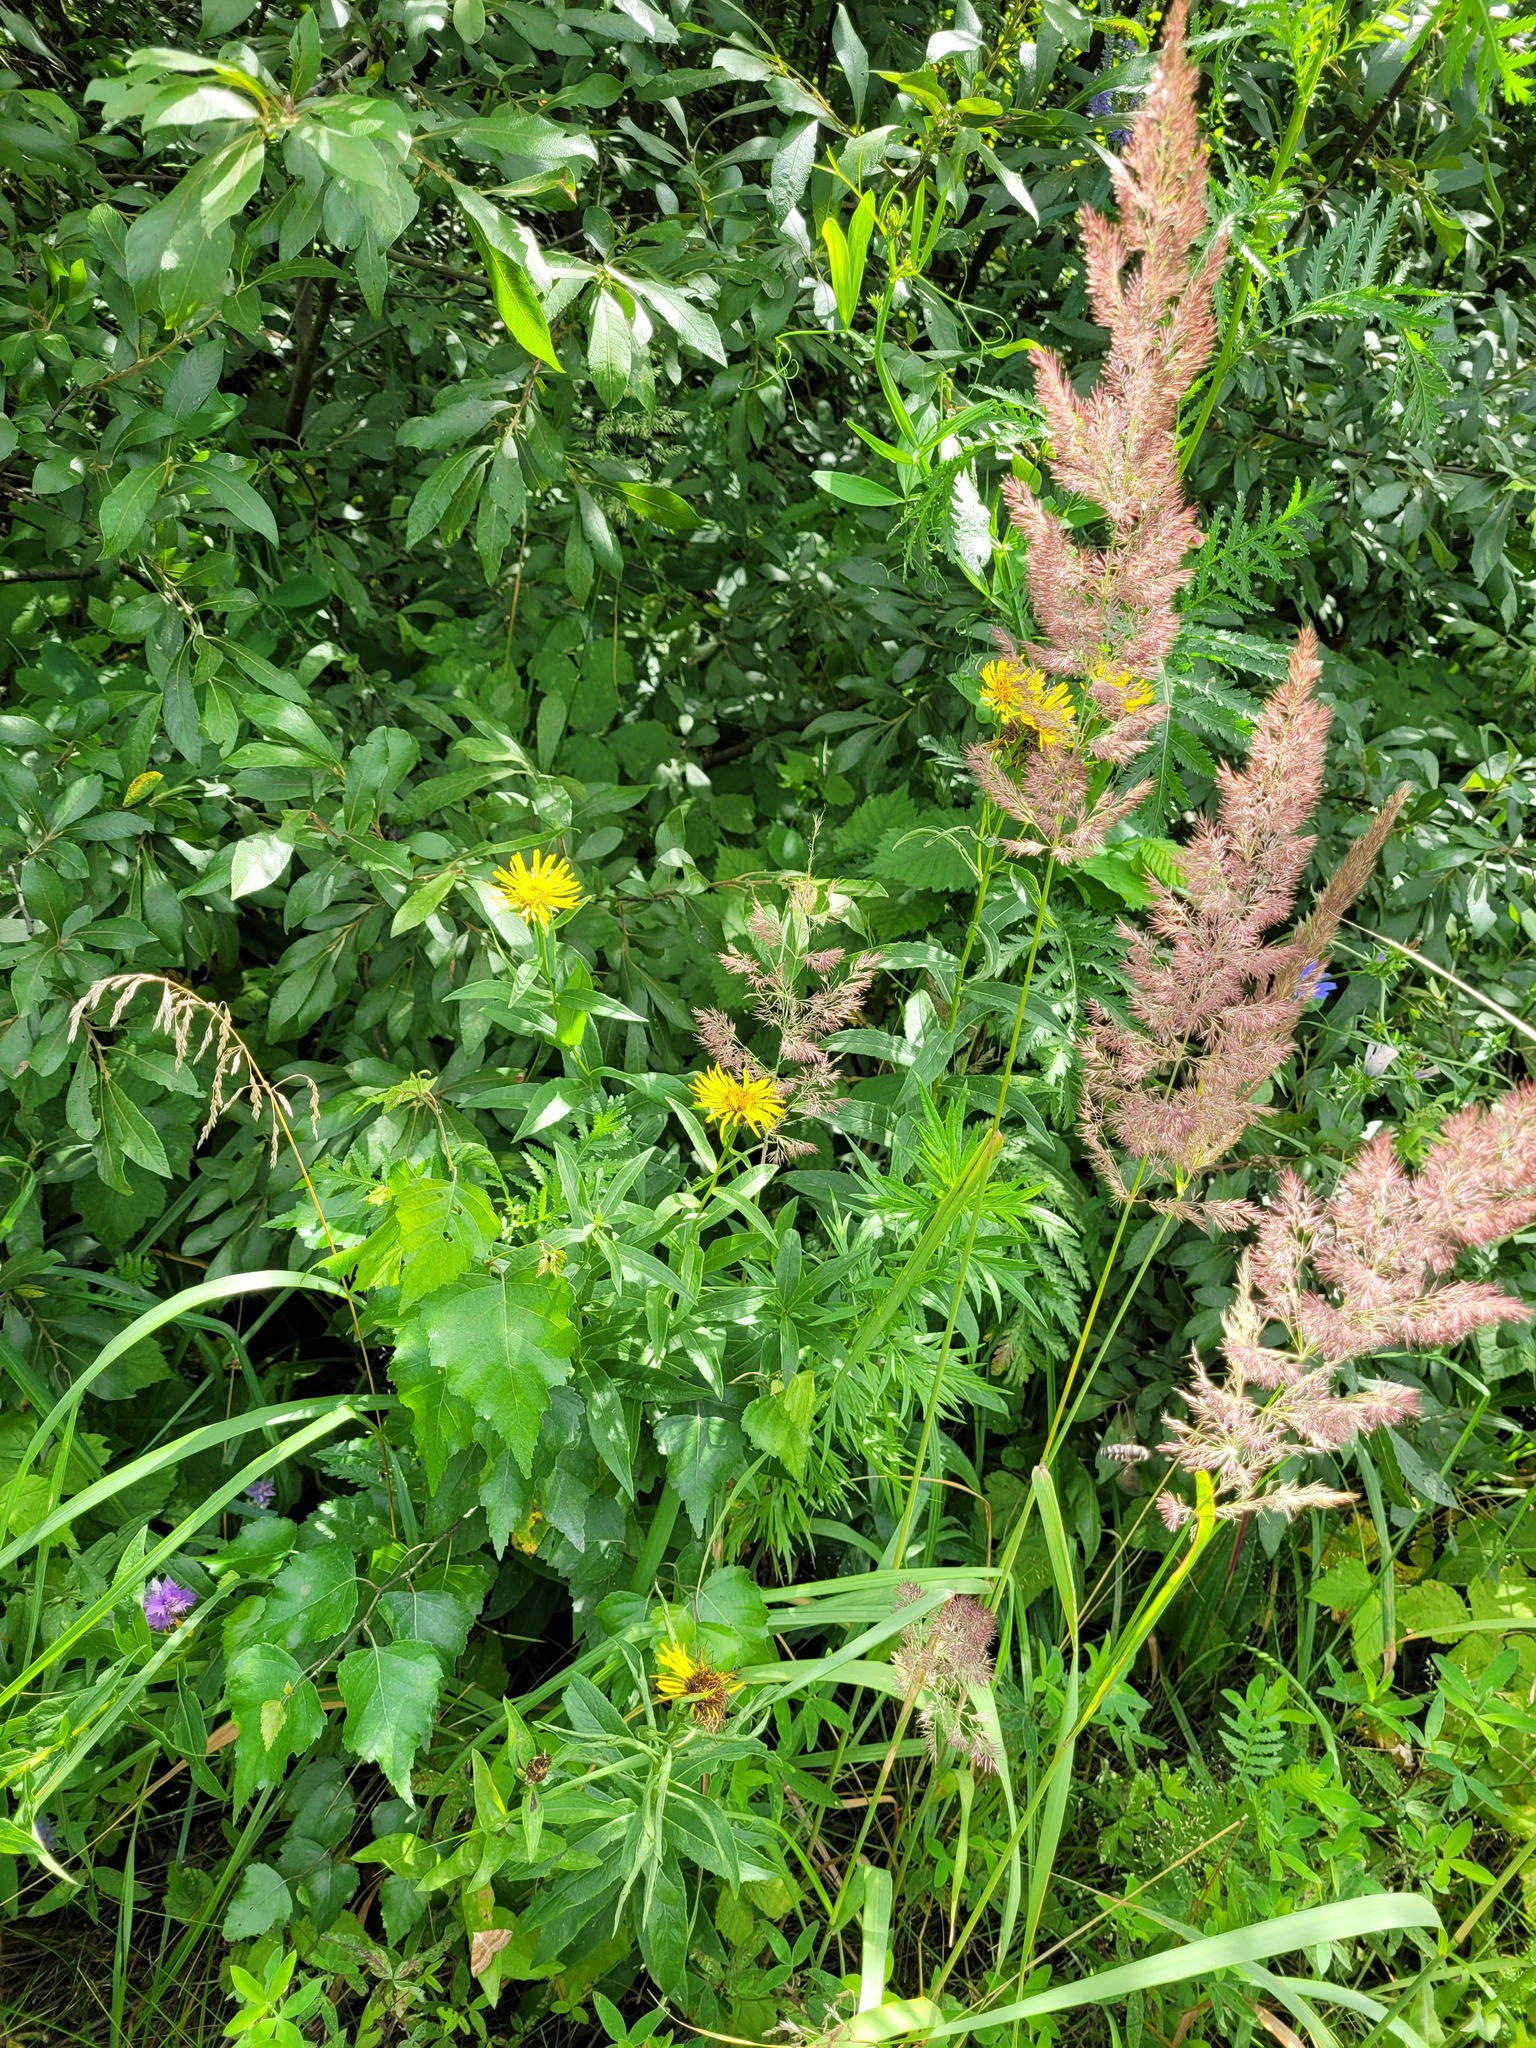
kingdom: Plantae
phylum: Tracheophyta
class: Magnoliopsida
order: Asterales
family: Asteraceae
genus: Pentanema
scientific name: Pentanema salicinum
